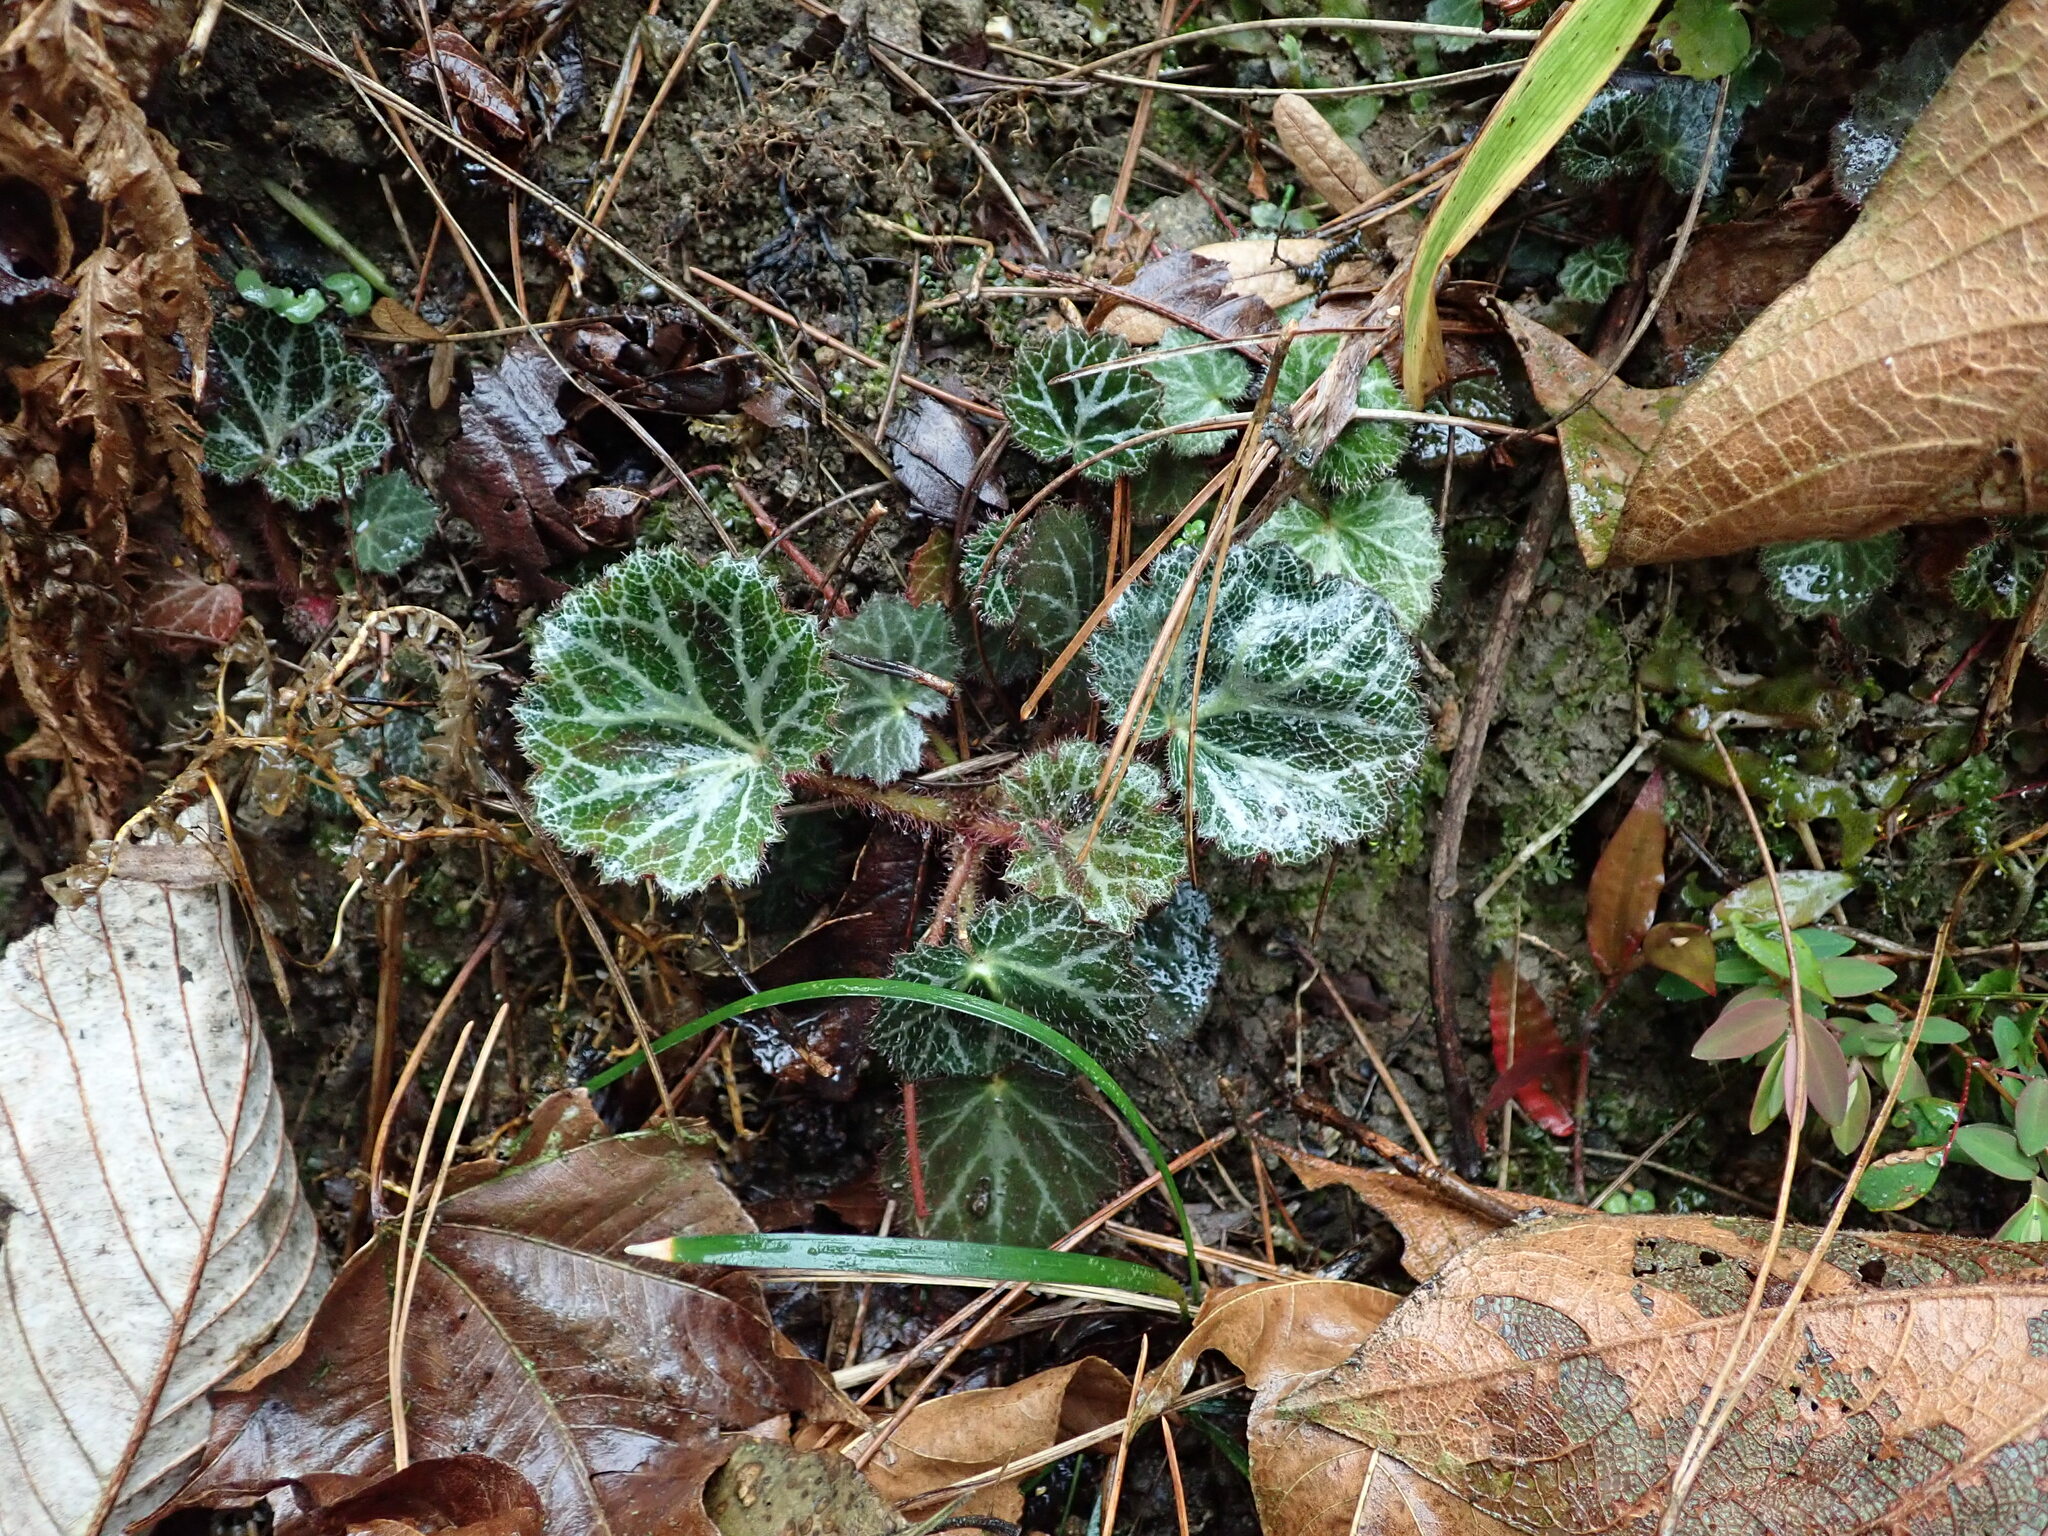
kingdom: Plantae
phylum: Tracheophyta
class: Magnoliopsida
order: Saxifragales
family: Saxifragaceae
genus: Saxifraga
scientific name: Saxifraga stolonifera
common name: Creeping saxifrage
